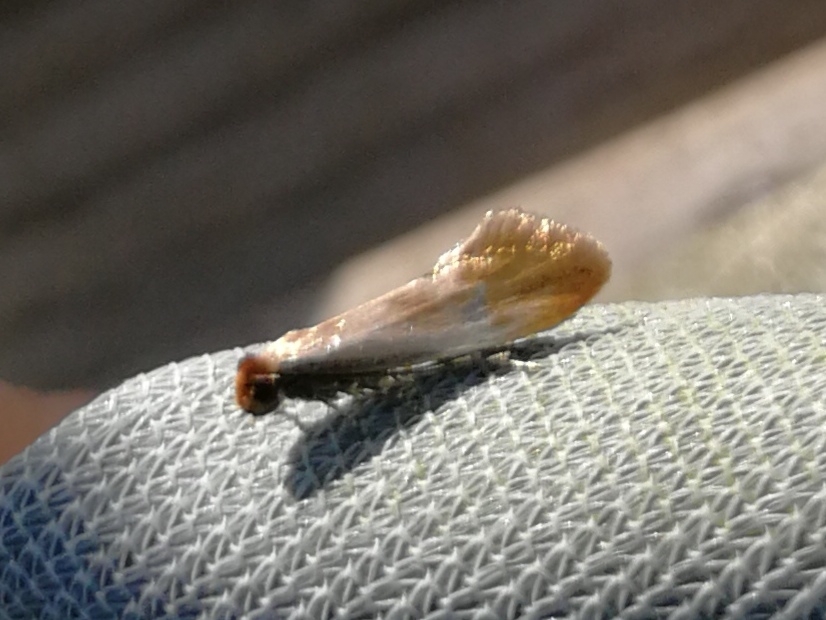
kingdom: Animalia
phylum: Arthropoda
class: Insecta
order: Lepidoptera
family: Tineidae
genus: Tinea
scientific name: Tinea semifulvella
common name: Fulvous clothes
